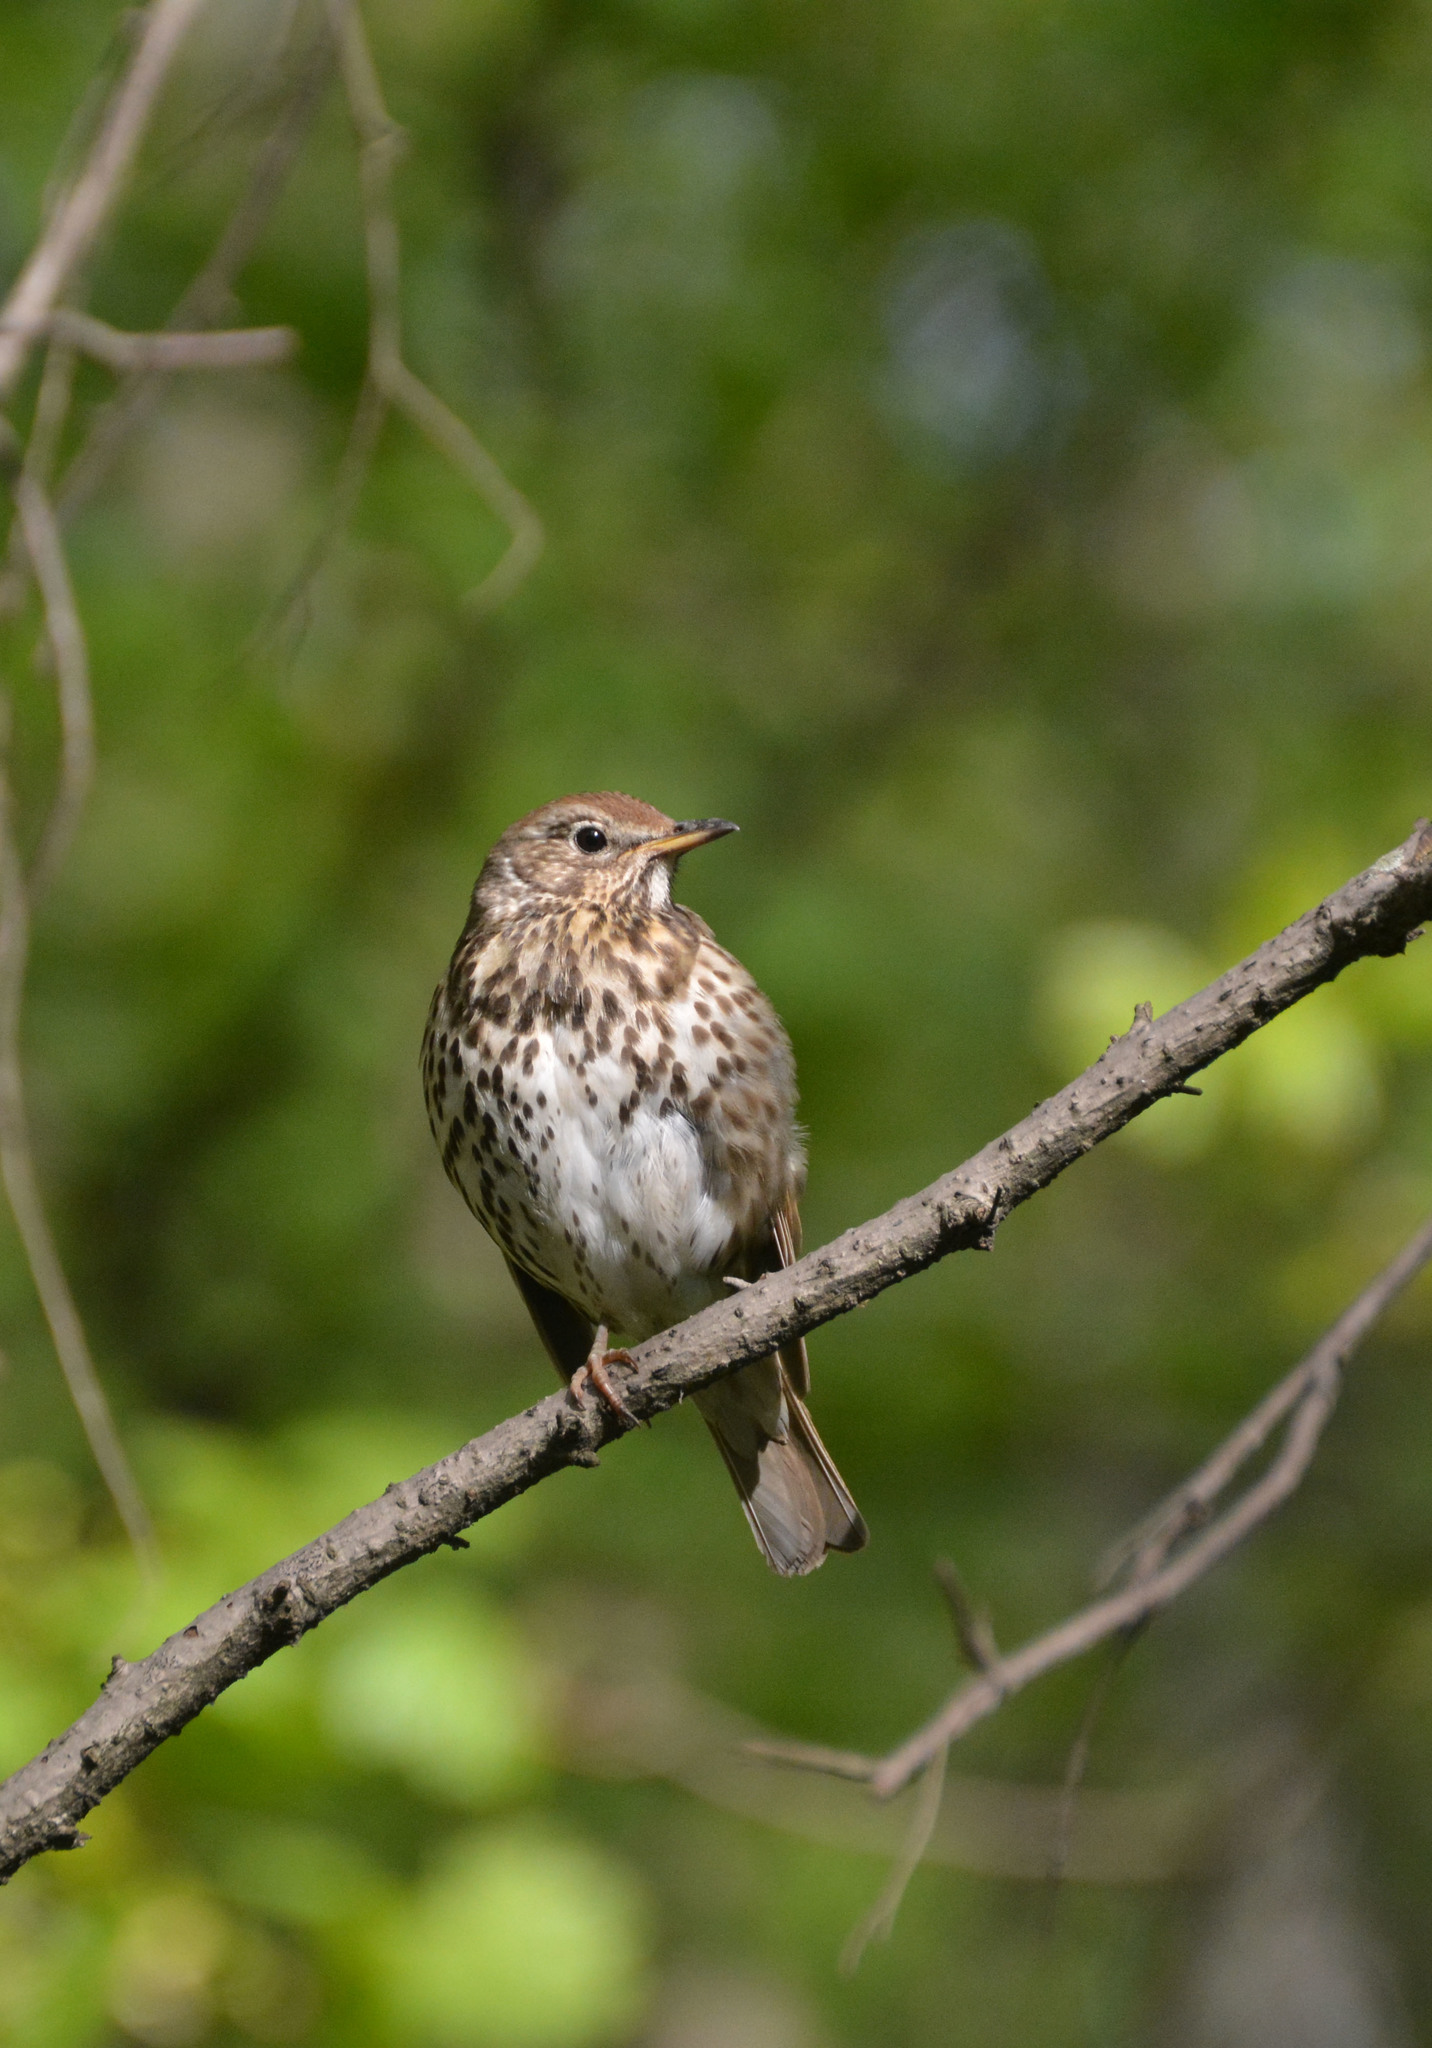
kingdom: Animalia
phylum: Chordata
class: Aves
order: Passeriformes
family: Turdidae
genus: Turdus
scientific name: Turdus philomelos
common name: Song thrush
